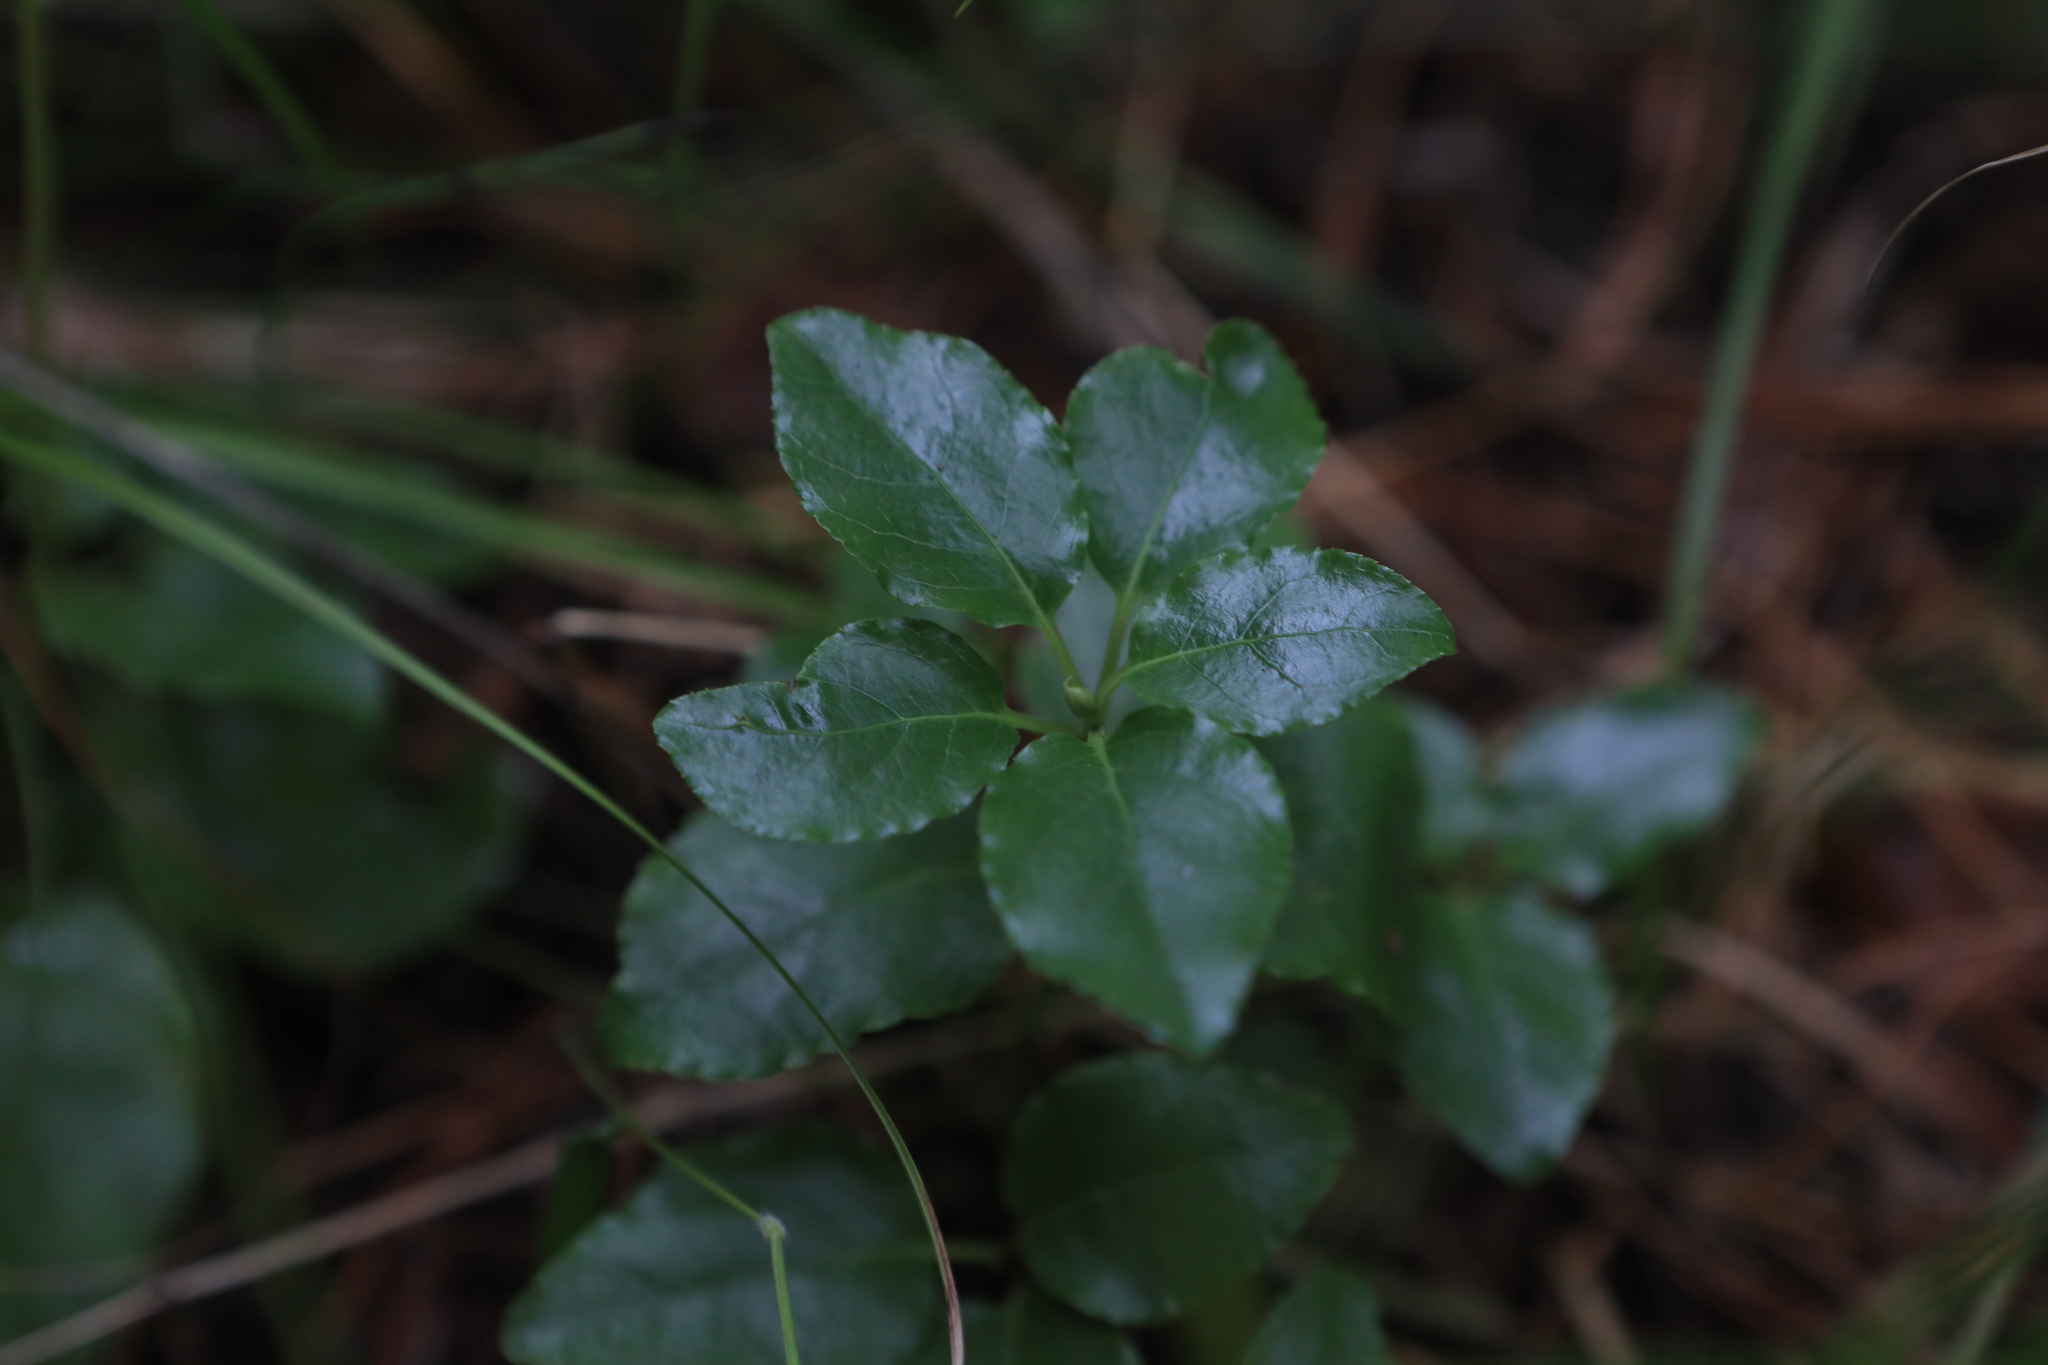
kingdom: Plantae
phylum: Tracheophyta
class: Magnoliopsida
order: Ericales
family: Ericaceae
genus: Orthilia
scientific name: Orthilia secunda
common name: One-sided orthilia
